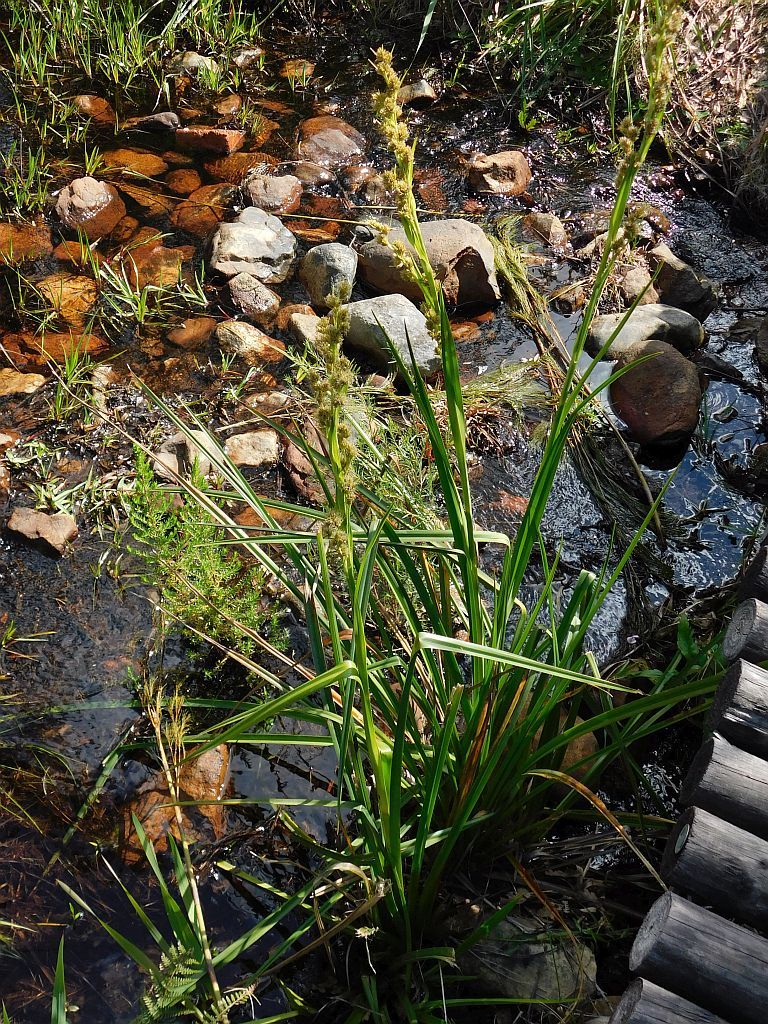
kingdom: Plantae
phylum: Tracheophyta
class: Liliopsida
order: Poales
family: Cyperaceae
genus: Carpha
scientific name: Carpha glomerata
